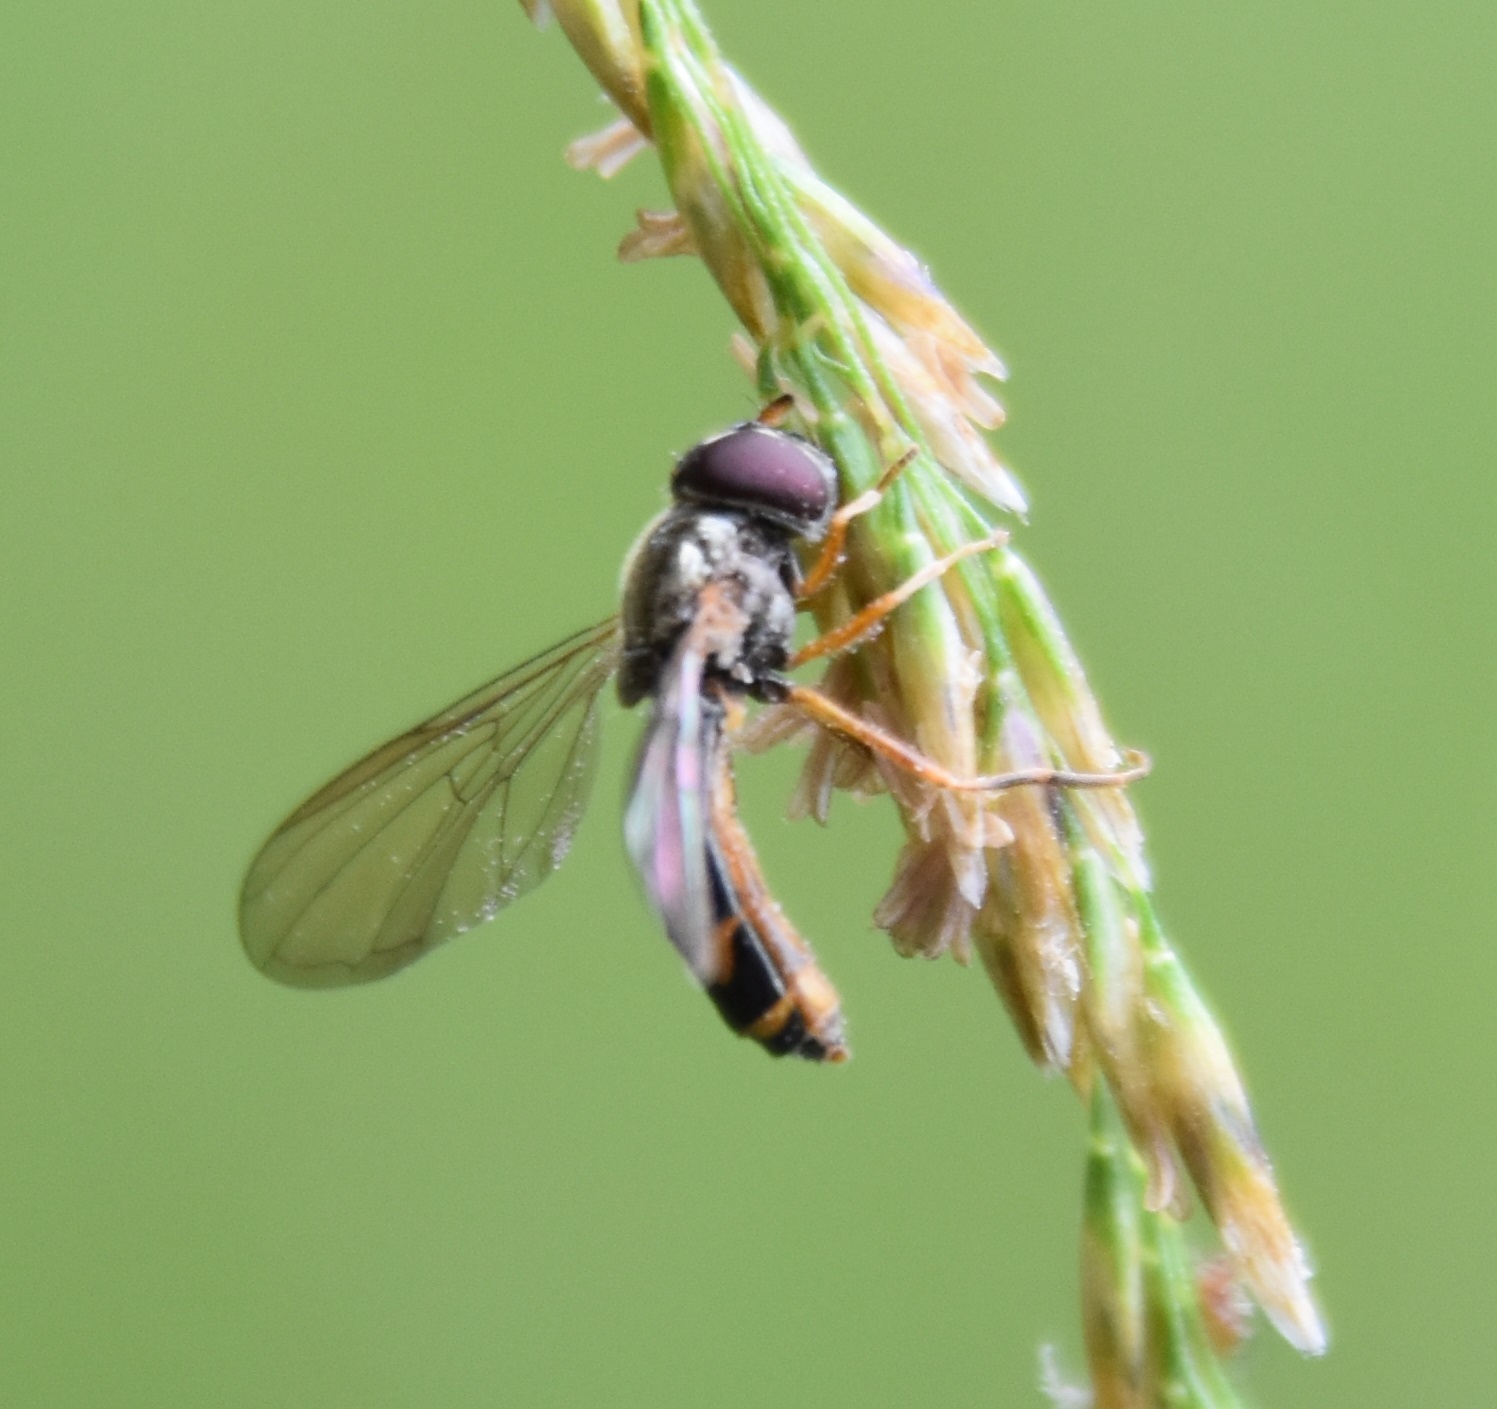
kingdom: Animalia
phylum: Arthropoda
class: Insecta
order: Diptera
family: Syrphidae
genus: Melanostoma
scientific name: Melanostoma
